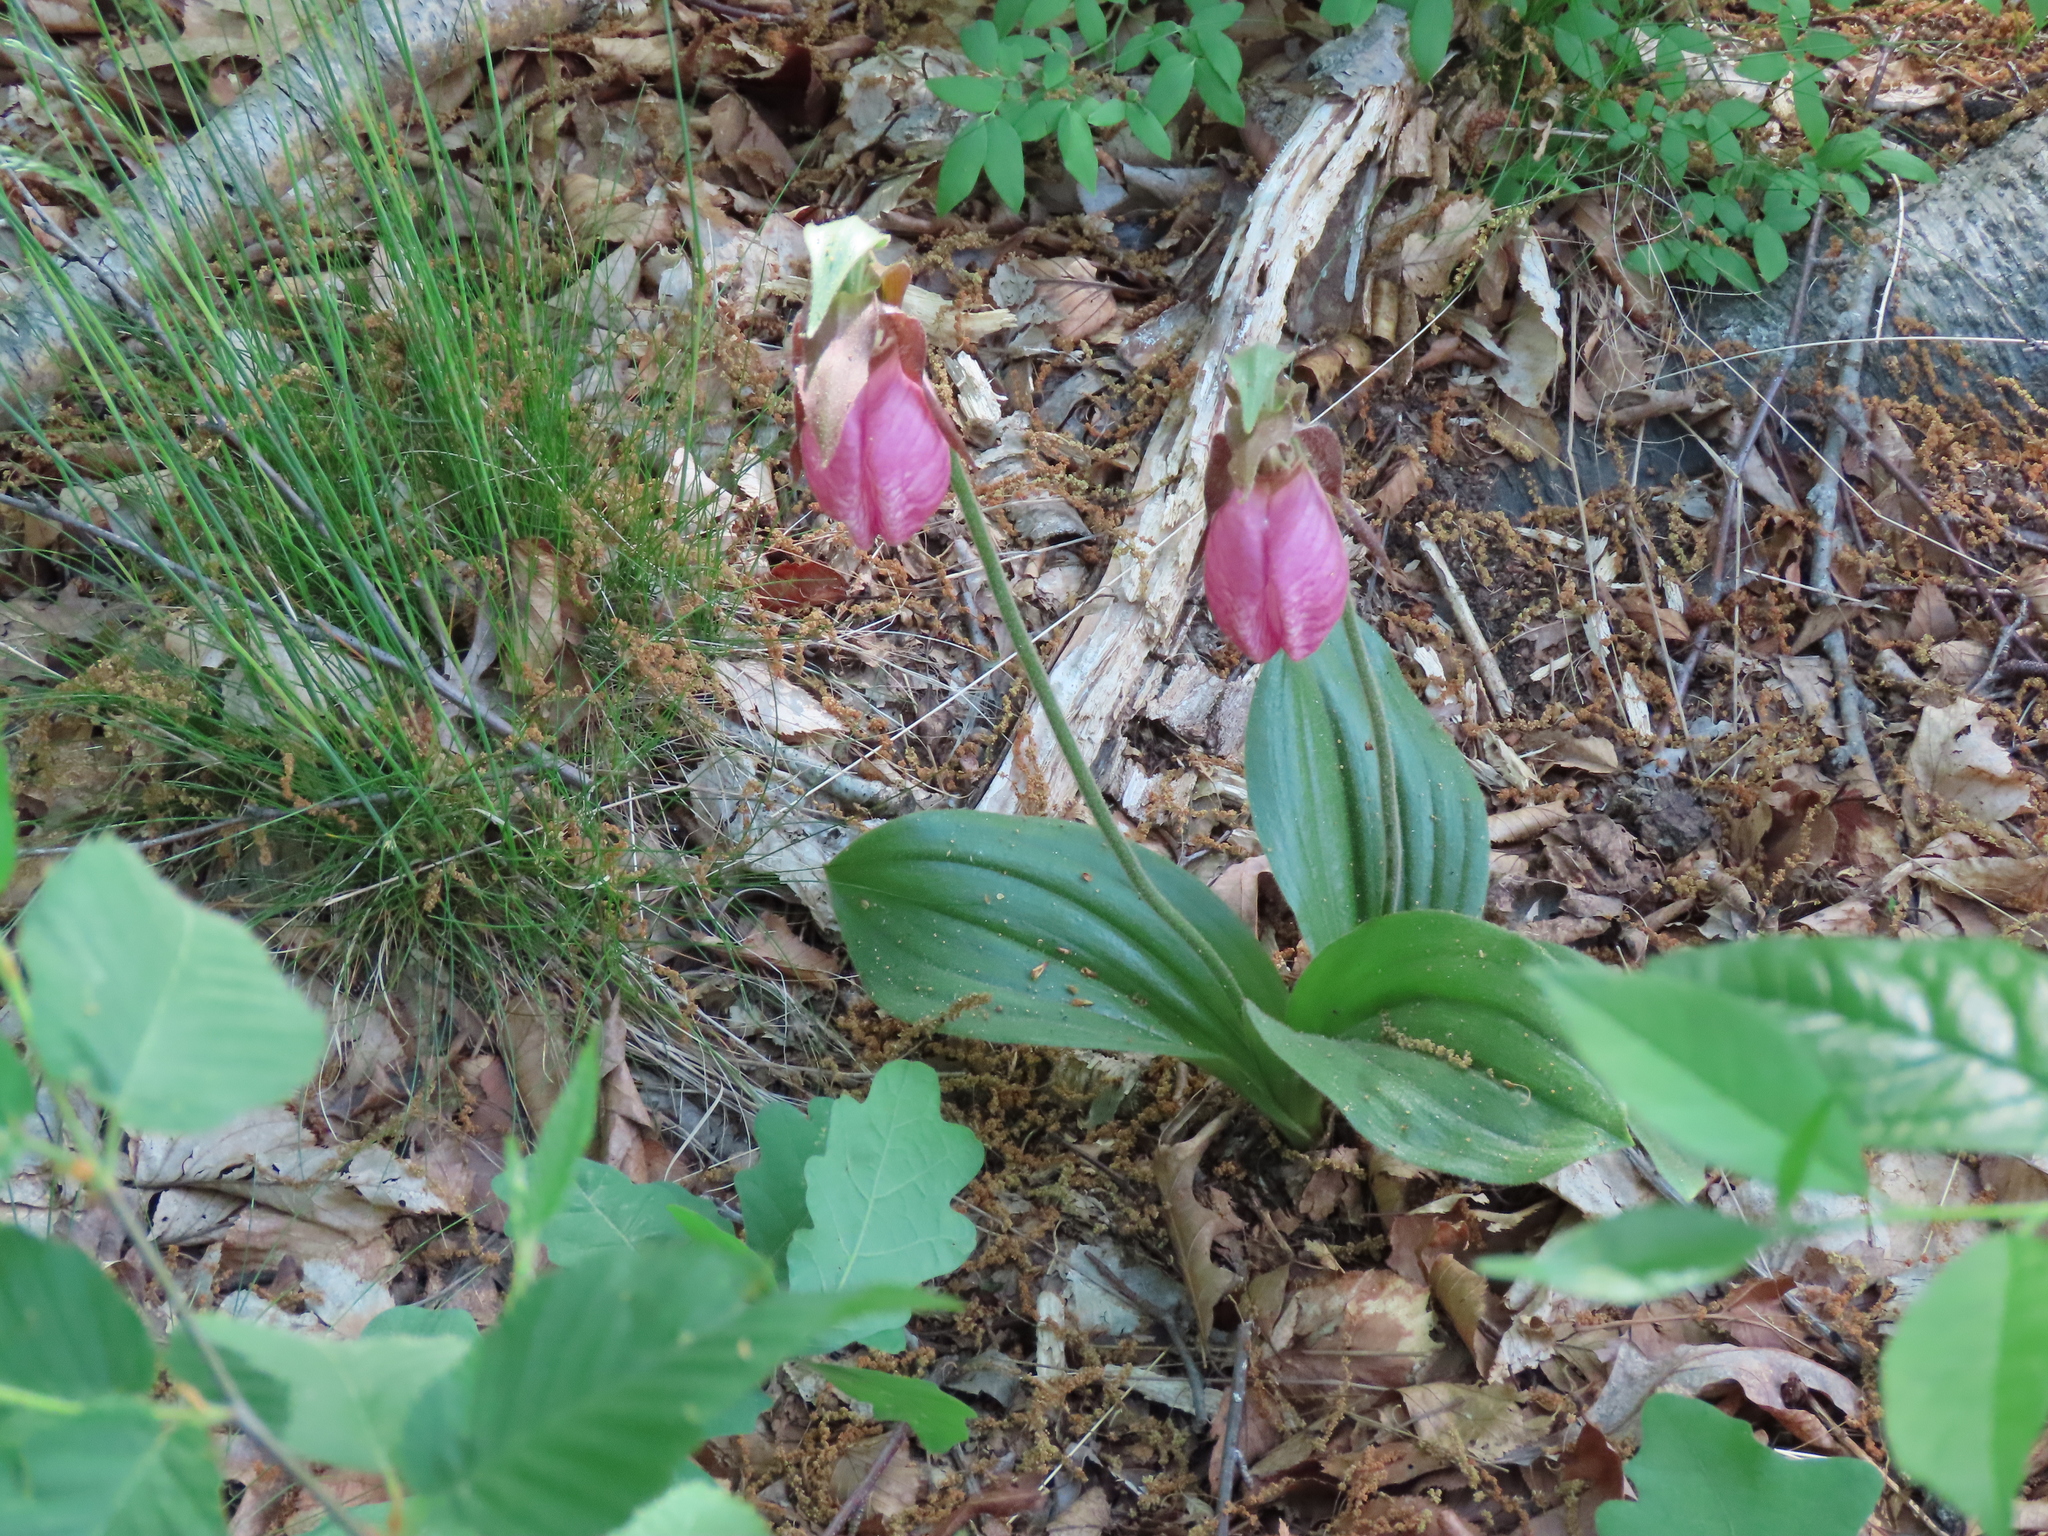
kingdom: Plantae
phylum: Tracheophyta
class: Liliopsida
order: Asparagales
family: Orchidaceae
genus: Cypripedium
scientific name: Cypripedium acaule
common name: Pink lady's-slipper
